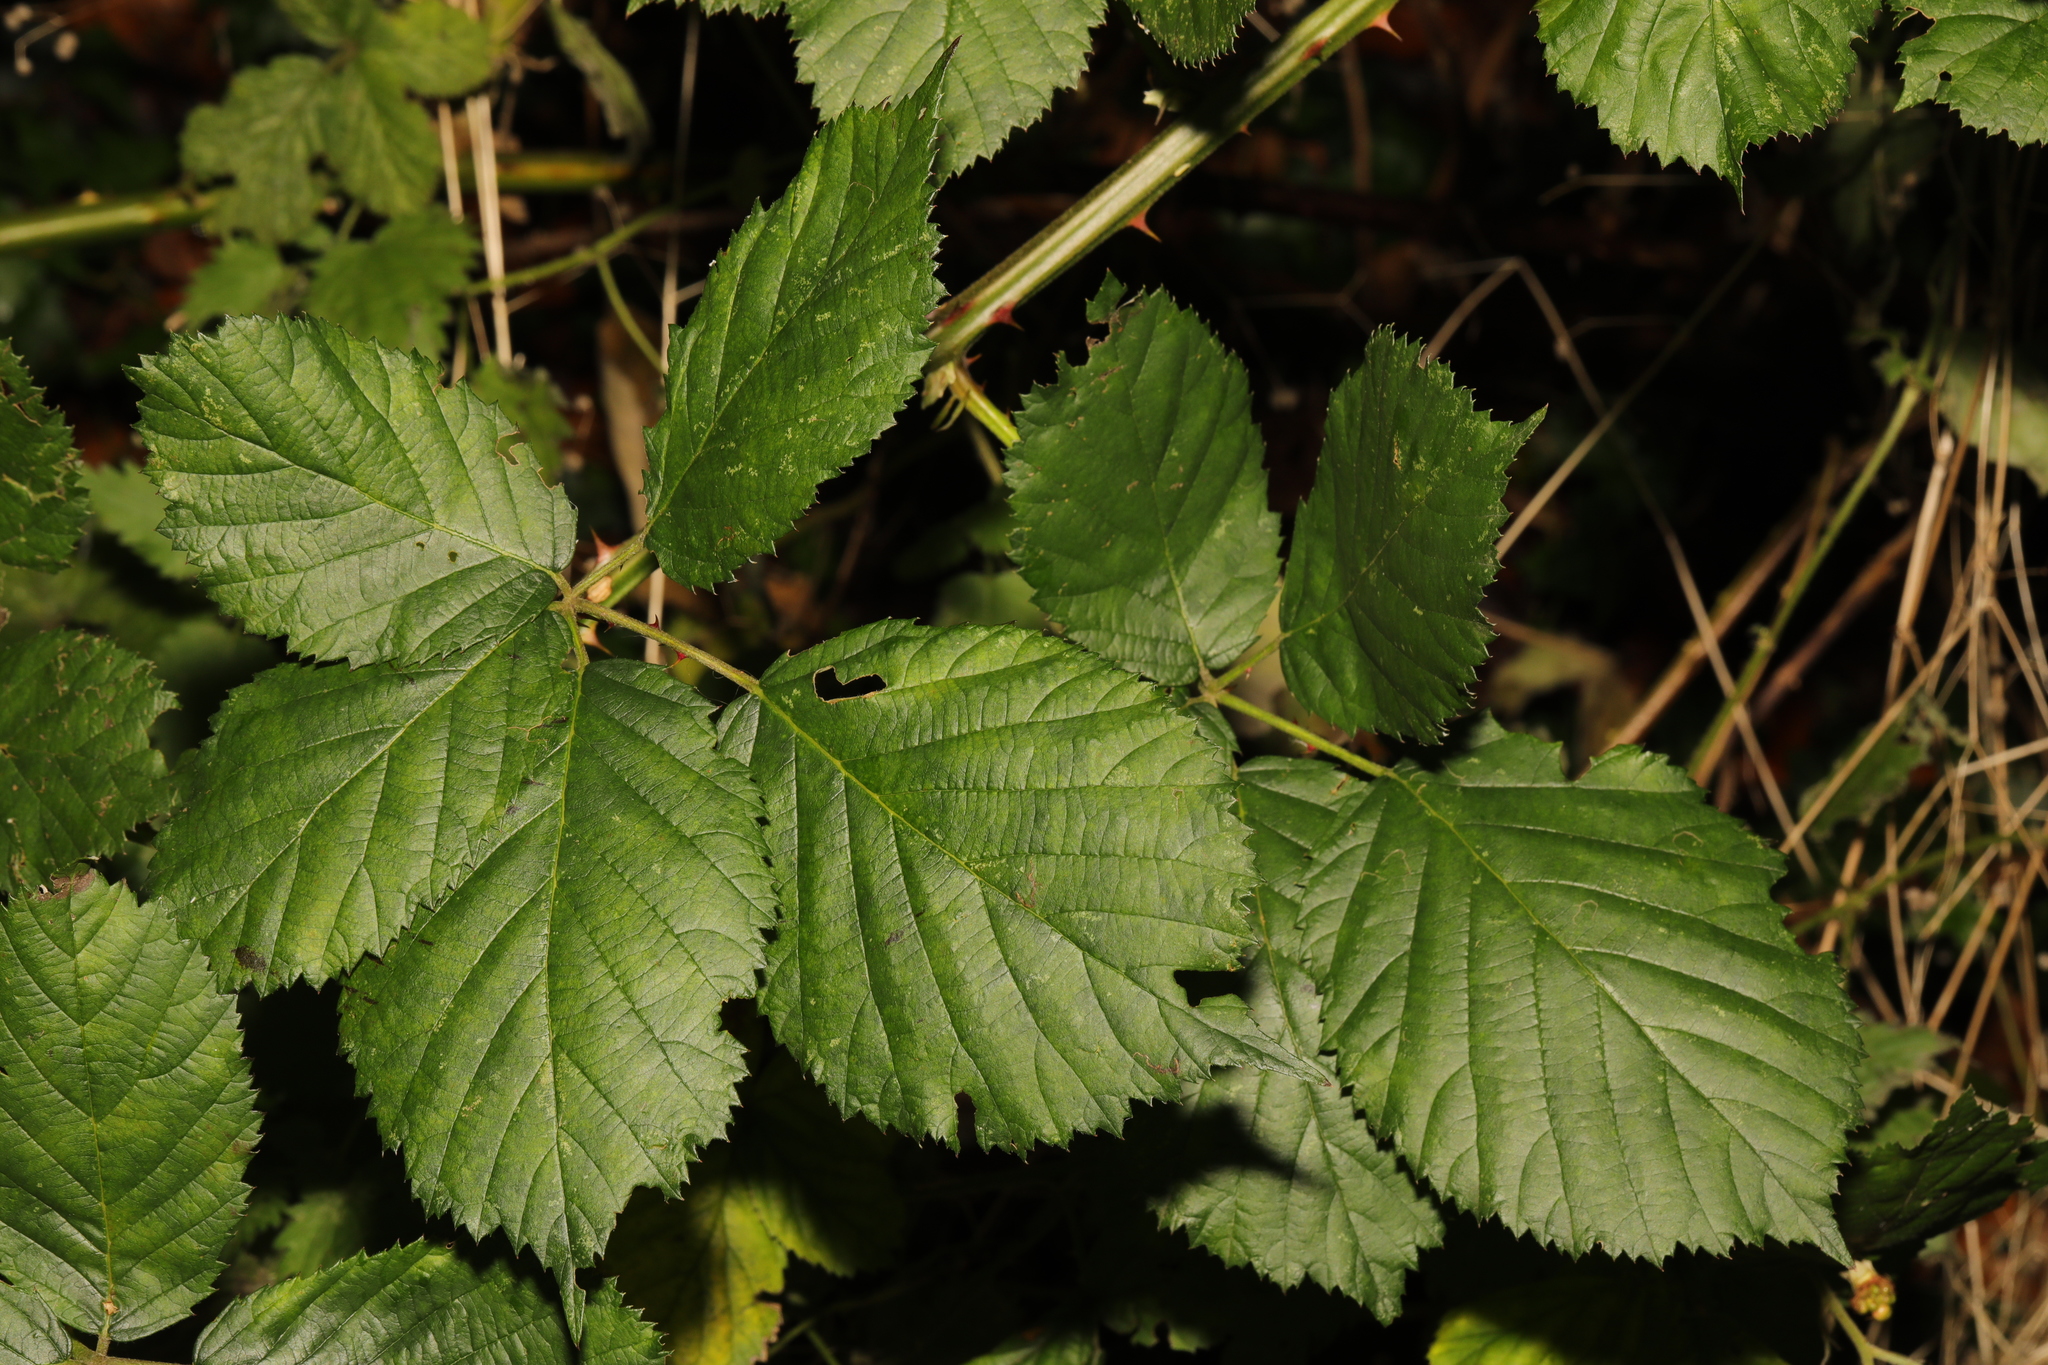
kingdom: Plantae
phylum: Tracheophyta
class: Magnoliopsida
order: Rosales
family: Rosaceae
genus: Rubus
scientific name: Rubus armeniacus
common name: Himalayan blackberry
